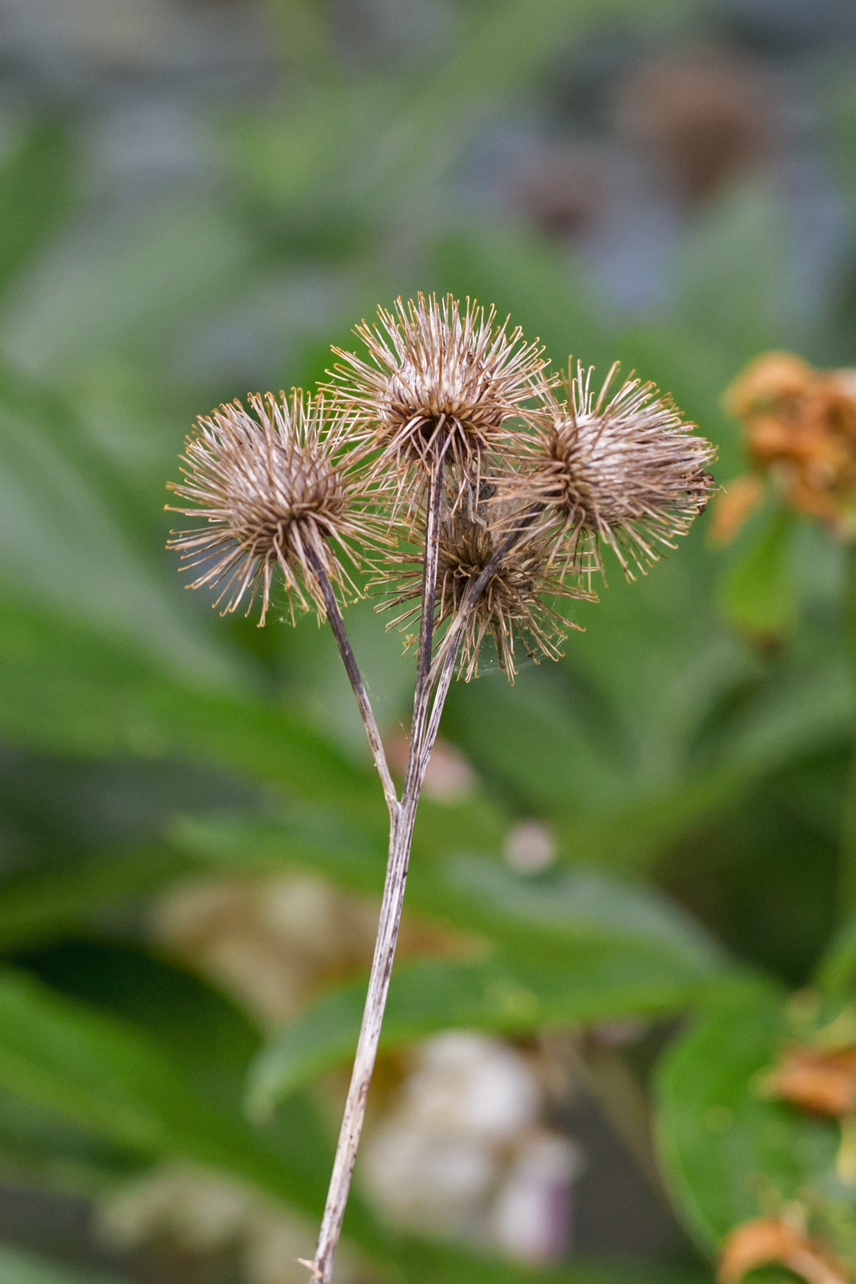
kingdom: Plantae
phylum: Tracheophyta
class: Magnoliopsida
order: Asterales
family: Asteraceae
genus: Arctium
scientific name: Arctium lappa
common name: Greater burdock
